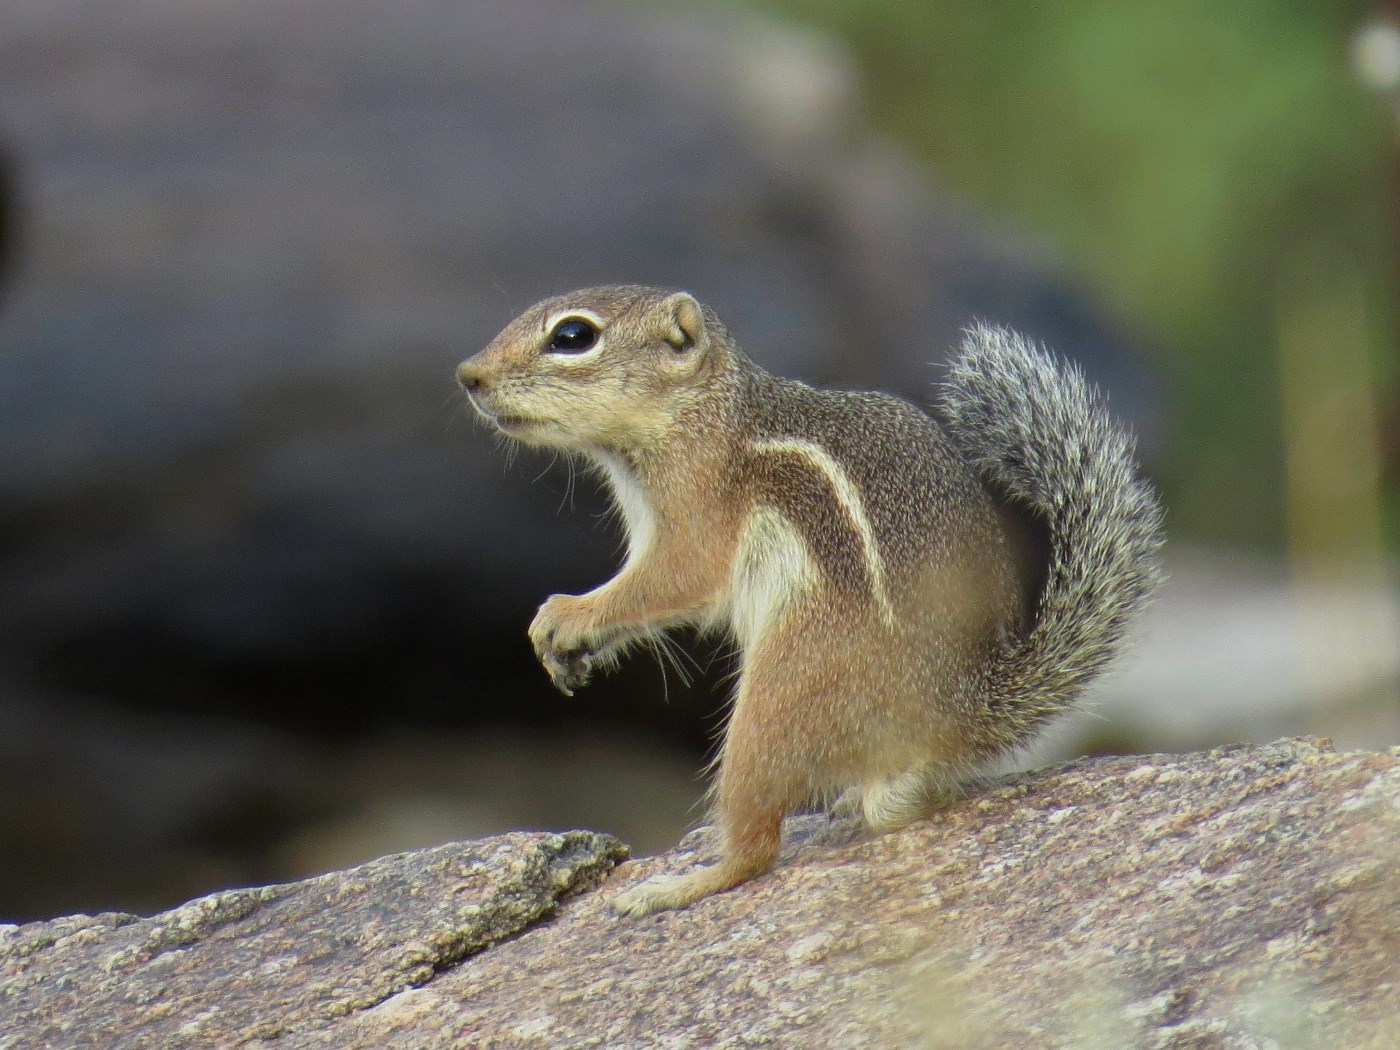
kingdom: Animalia
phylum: Chordata
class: Mammalia
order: Rodentia
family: Sciuridae
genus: Ammospermophilus
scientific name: Ammospermophilus harrisii
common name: Harris's antelope squirrel
